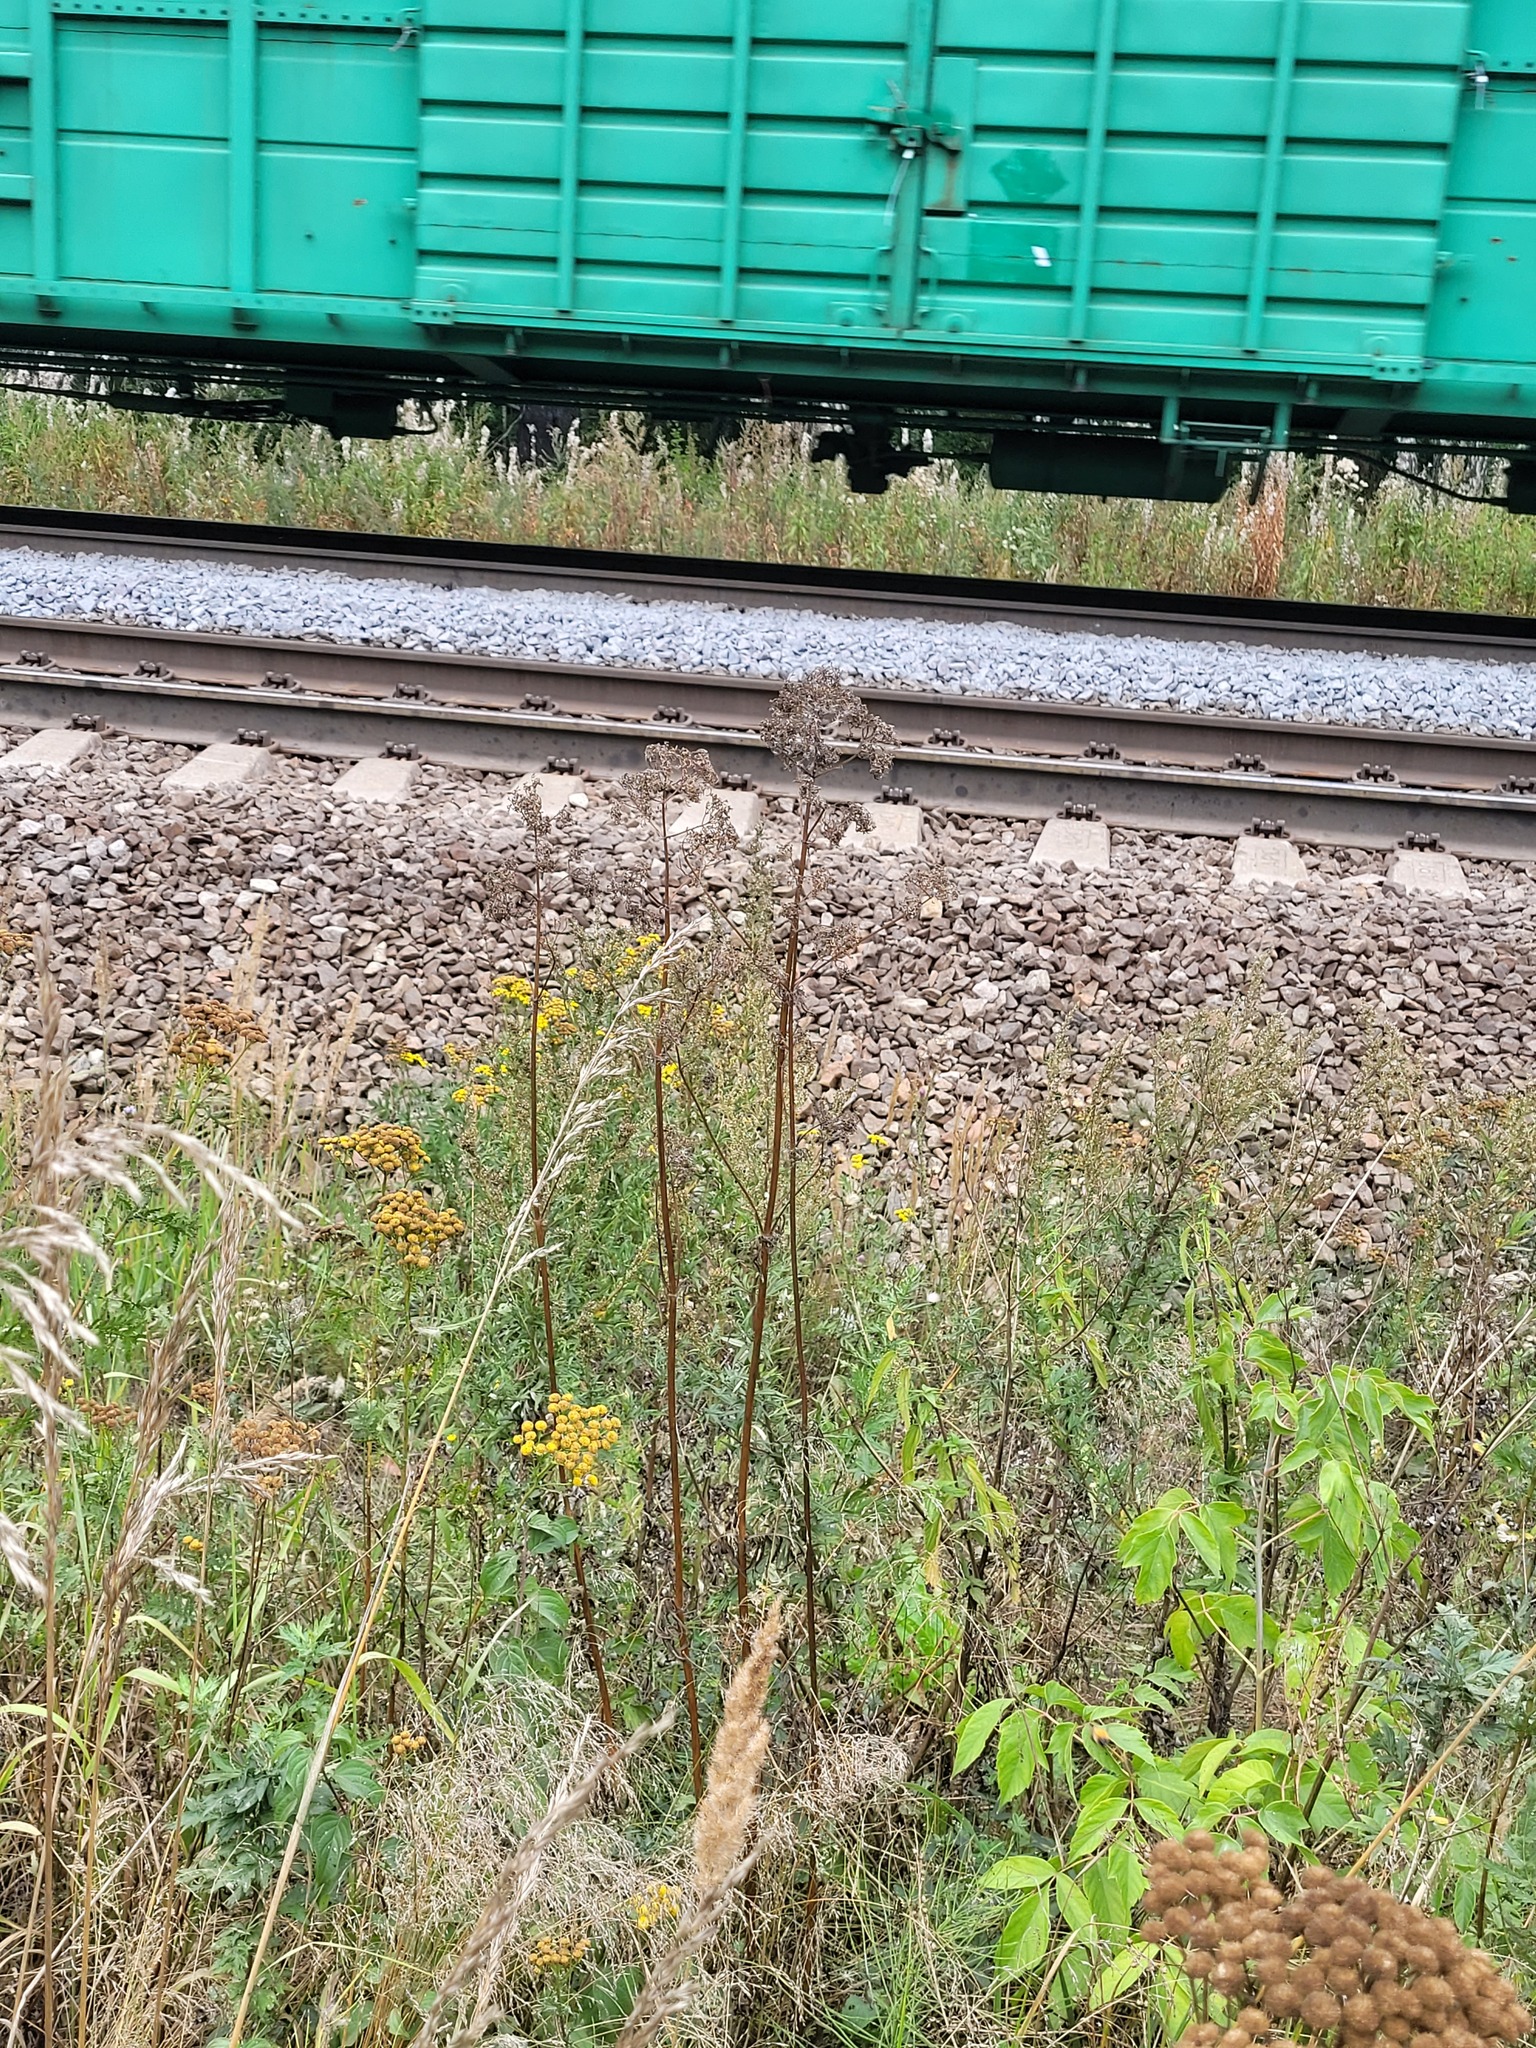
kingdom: Plantae
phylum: Tracheophyta
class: Magnoliopsida
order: Dipsacales
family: Caprifoliaceae
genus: Valeriana
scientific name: Valeriana officinalis
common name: Common valerian
